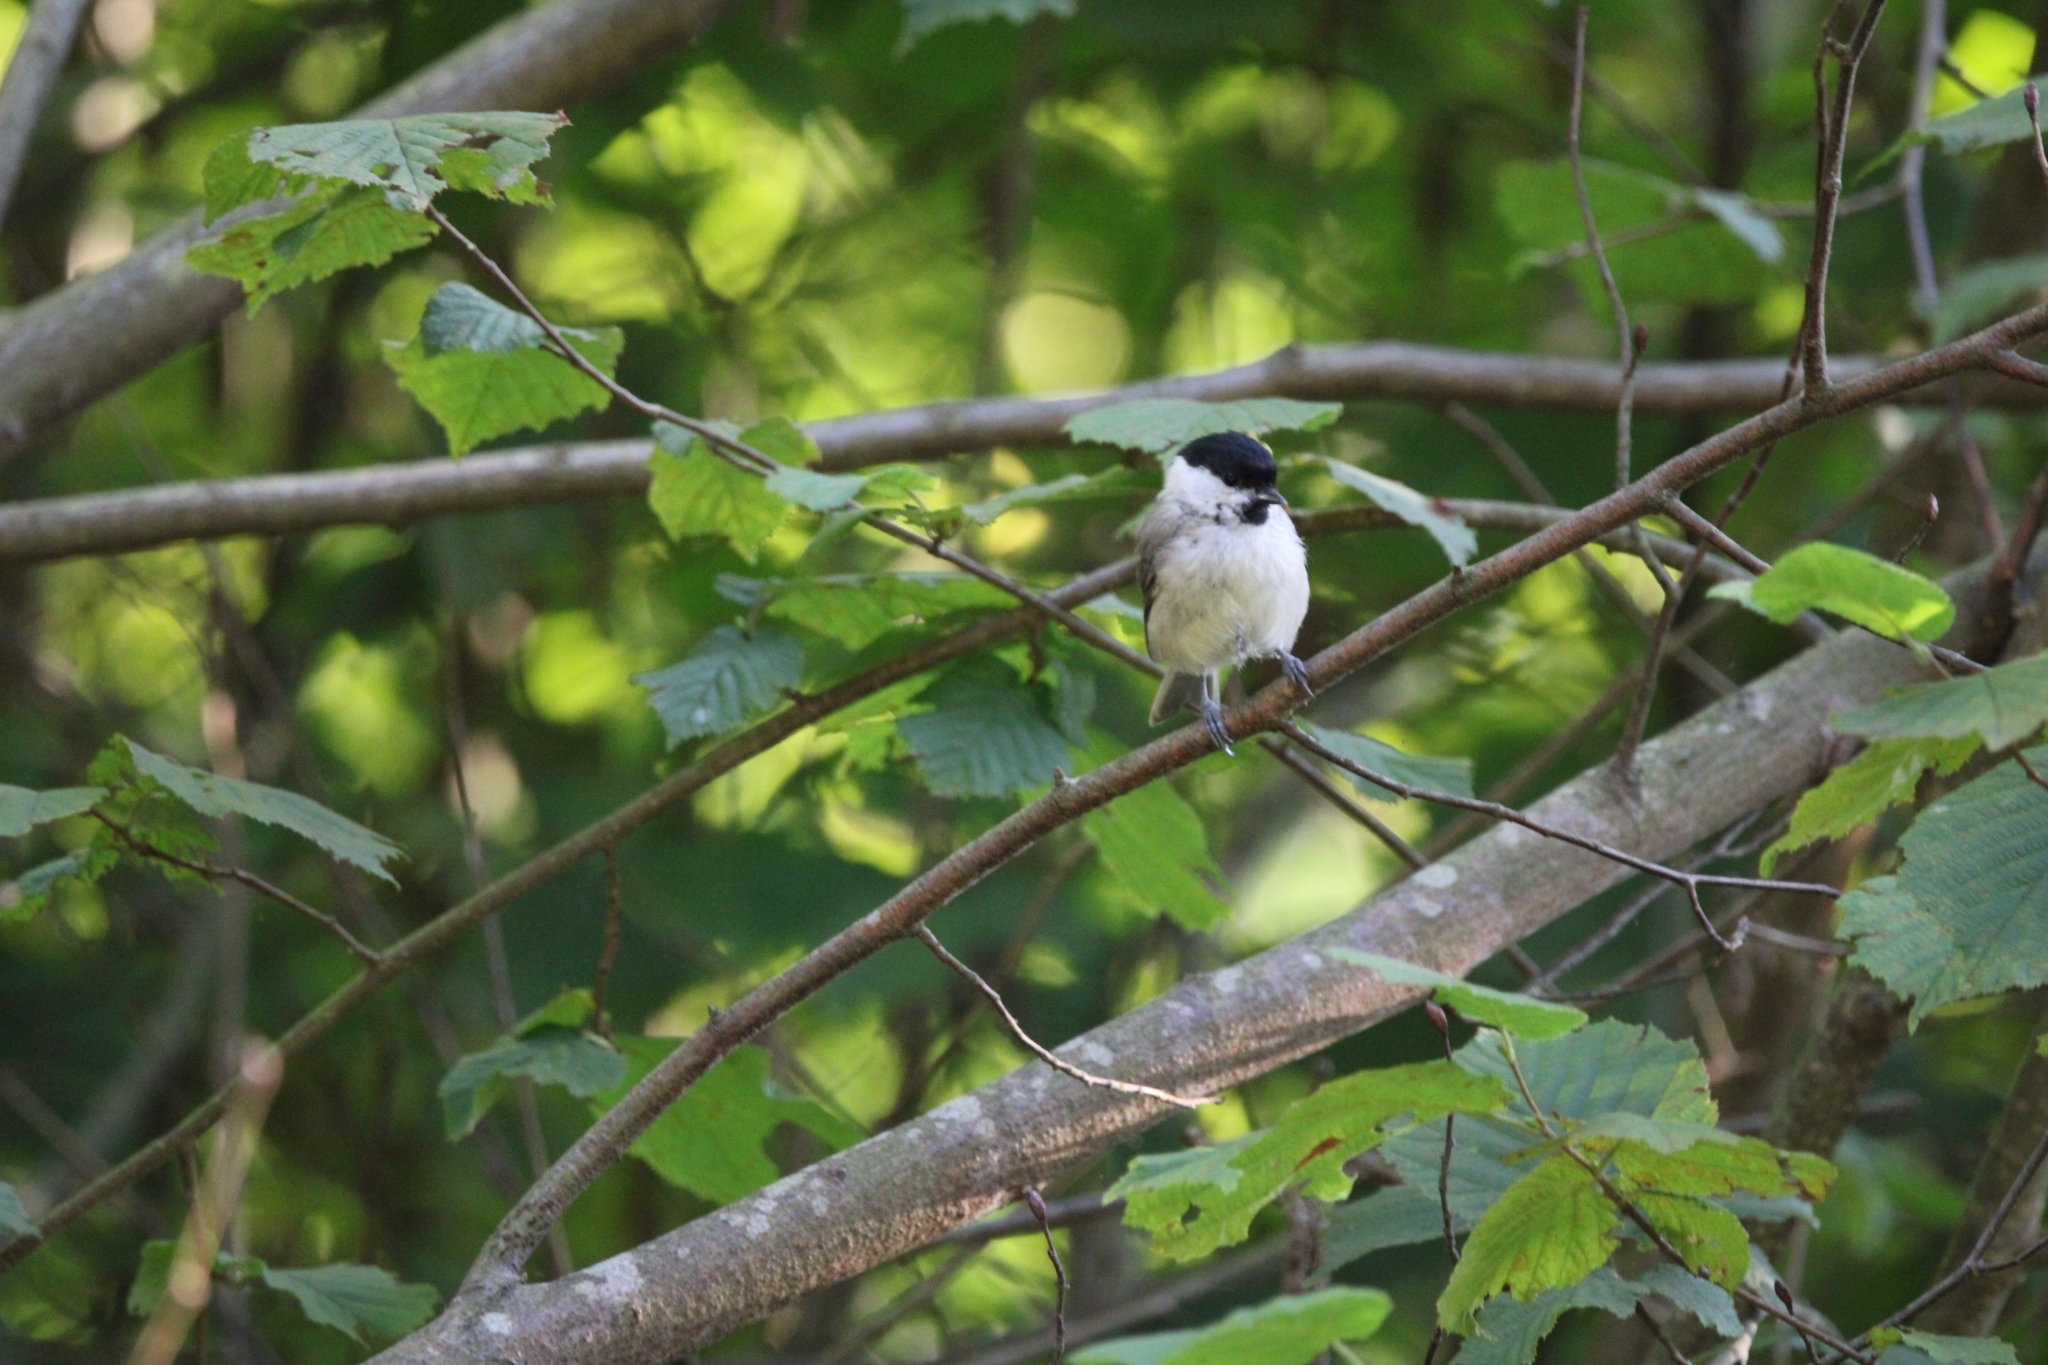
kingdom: Animalia
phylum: Chordata
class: Aves
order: Passeriformes
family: Paridae
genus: Poecile
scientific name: Poecile palustris
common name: Marsh tit
